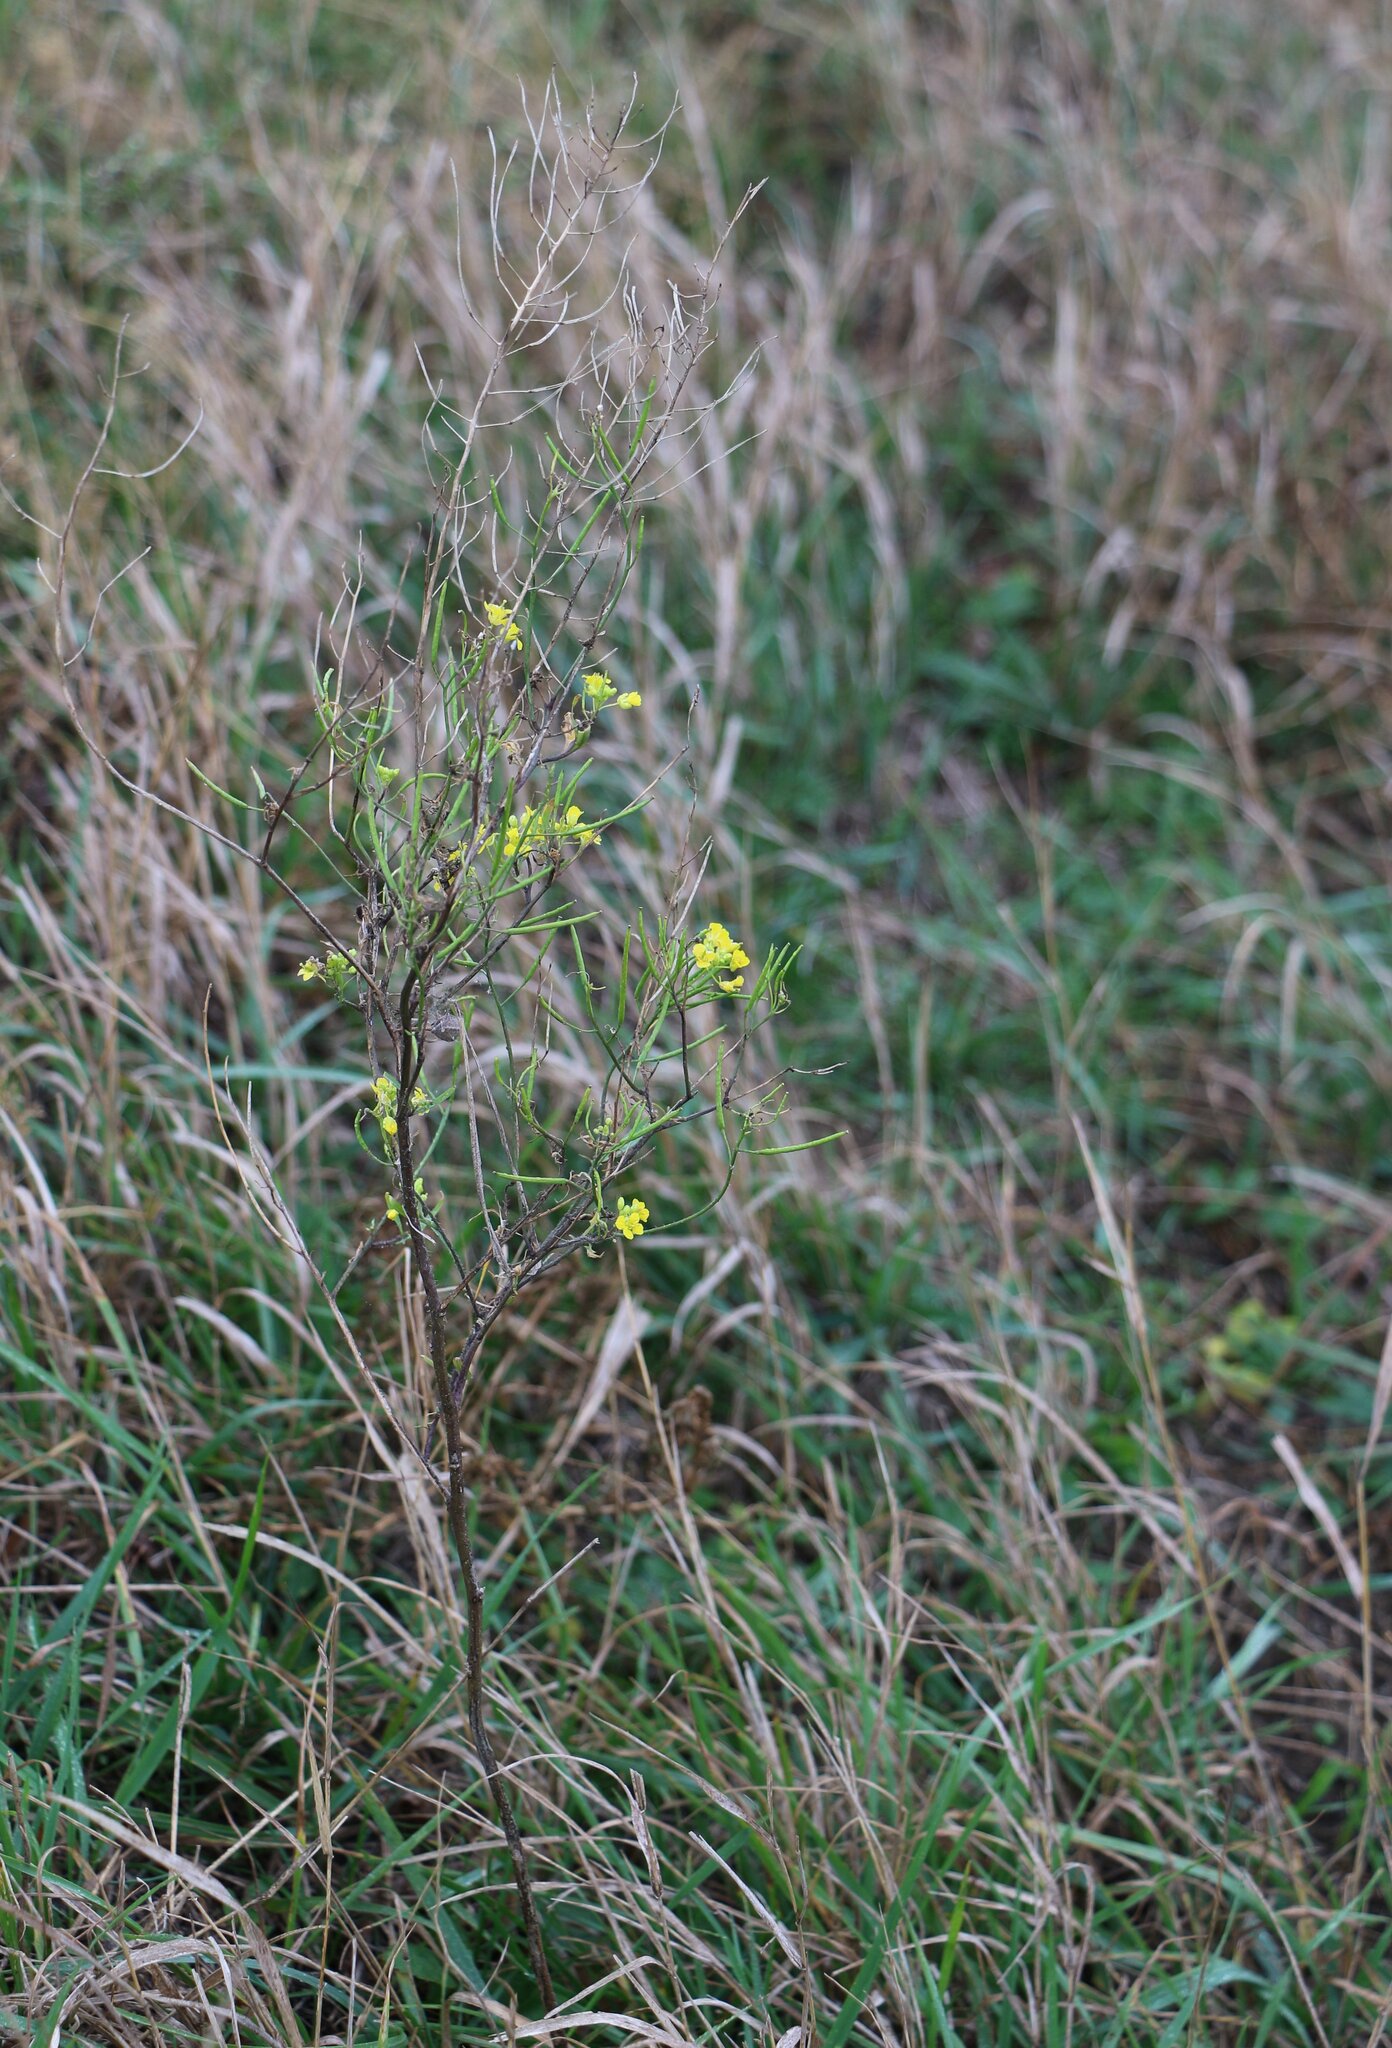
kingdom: Plantae
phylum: Tracheophyta
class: Magnoliopsida
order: Brassicales
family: Brassicaceae
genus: Sisymbrium
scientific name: Sisymbrium loeselii
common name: False london-rocket
